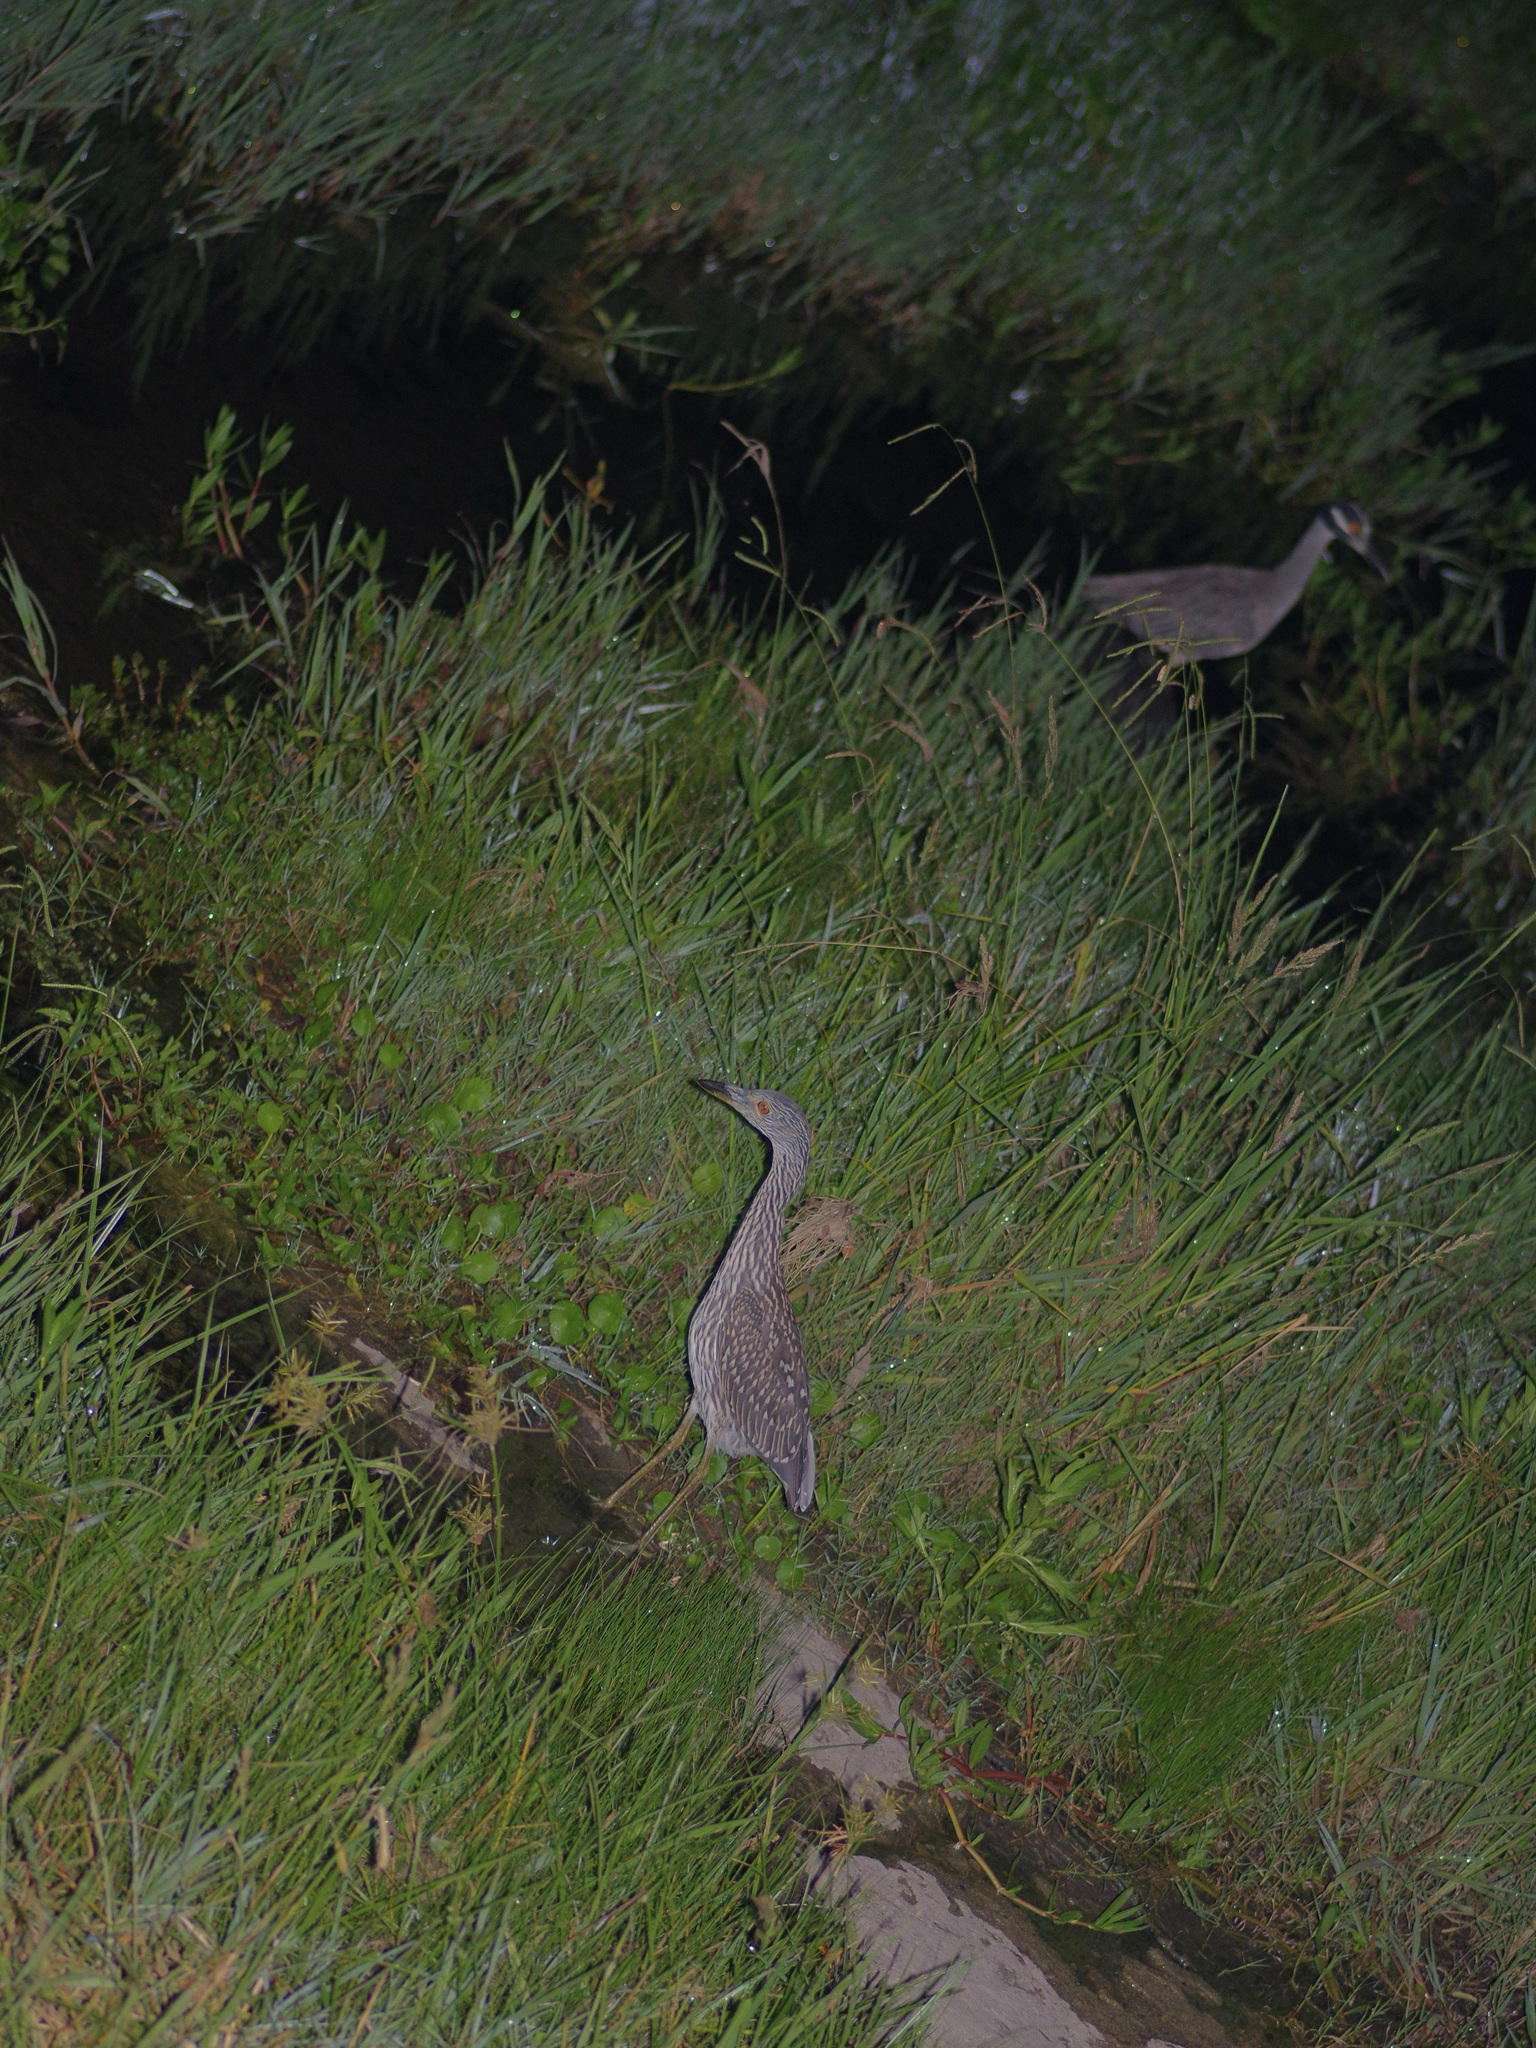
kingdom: Animalia
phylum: Chordata
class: Aves
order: Pelecaniformes
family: Ardeidae
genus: Nyctanassa
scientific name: Nyctanassa violacea
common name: Yellow-crowned night heron
